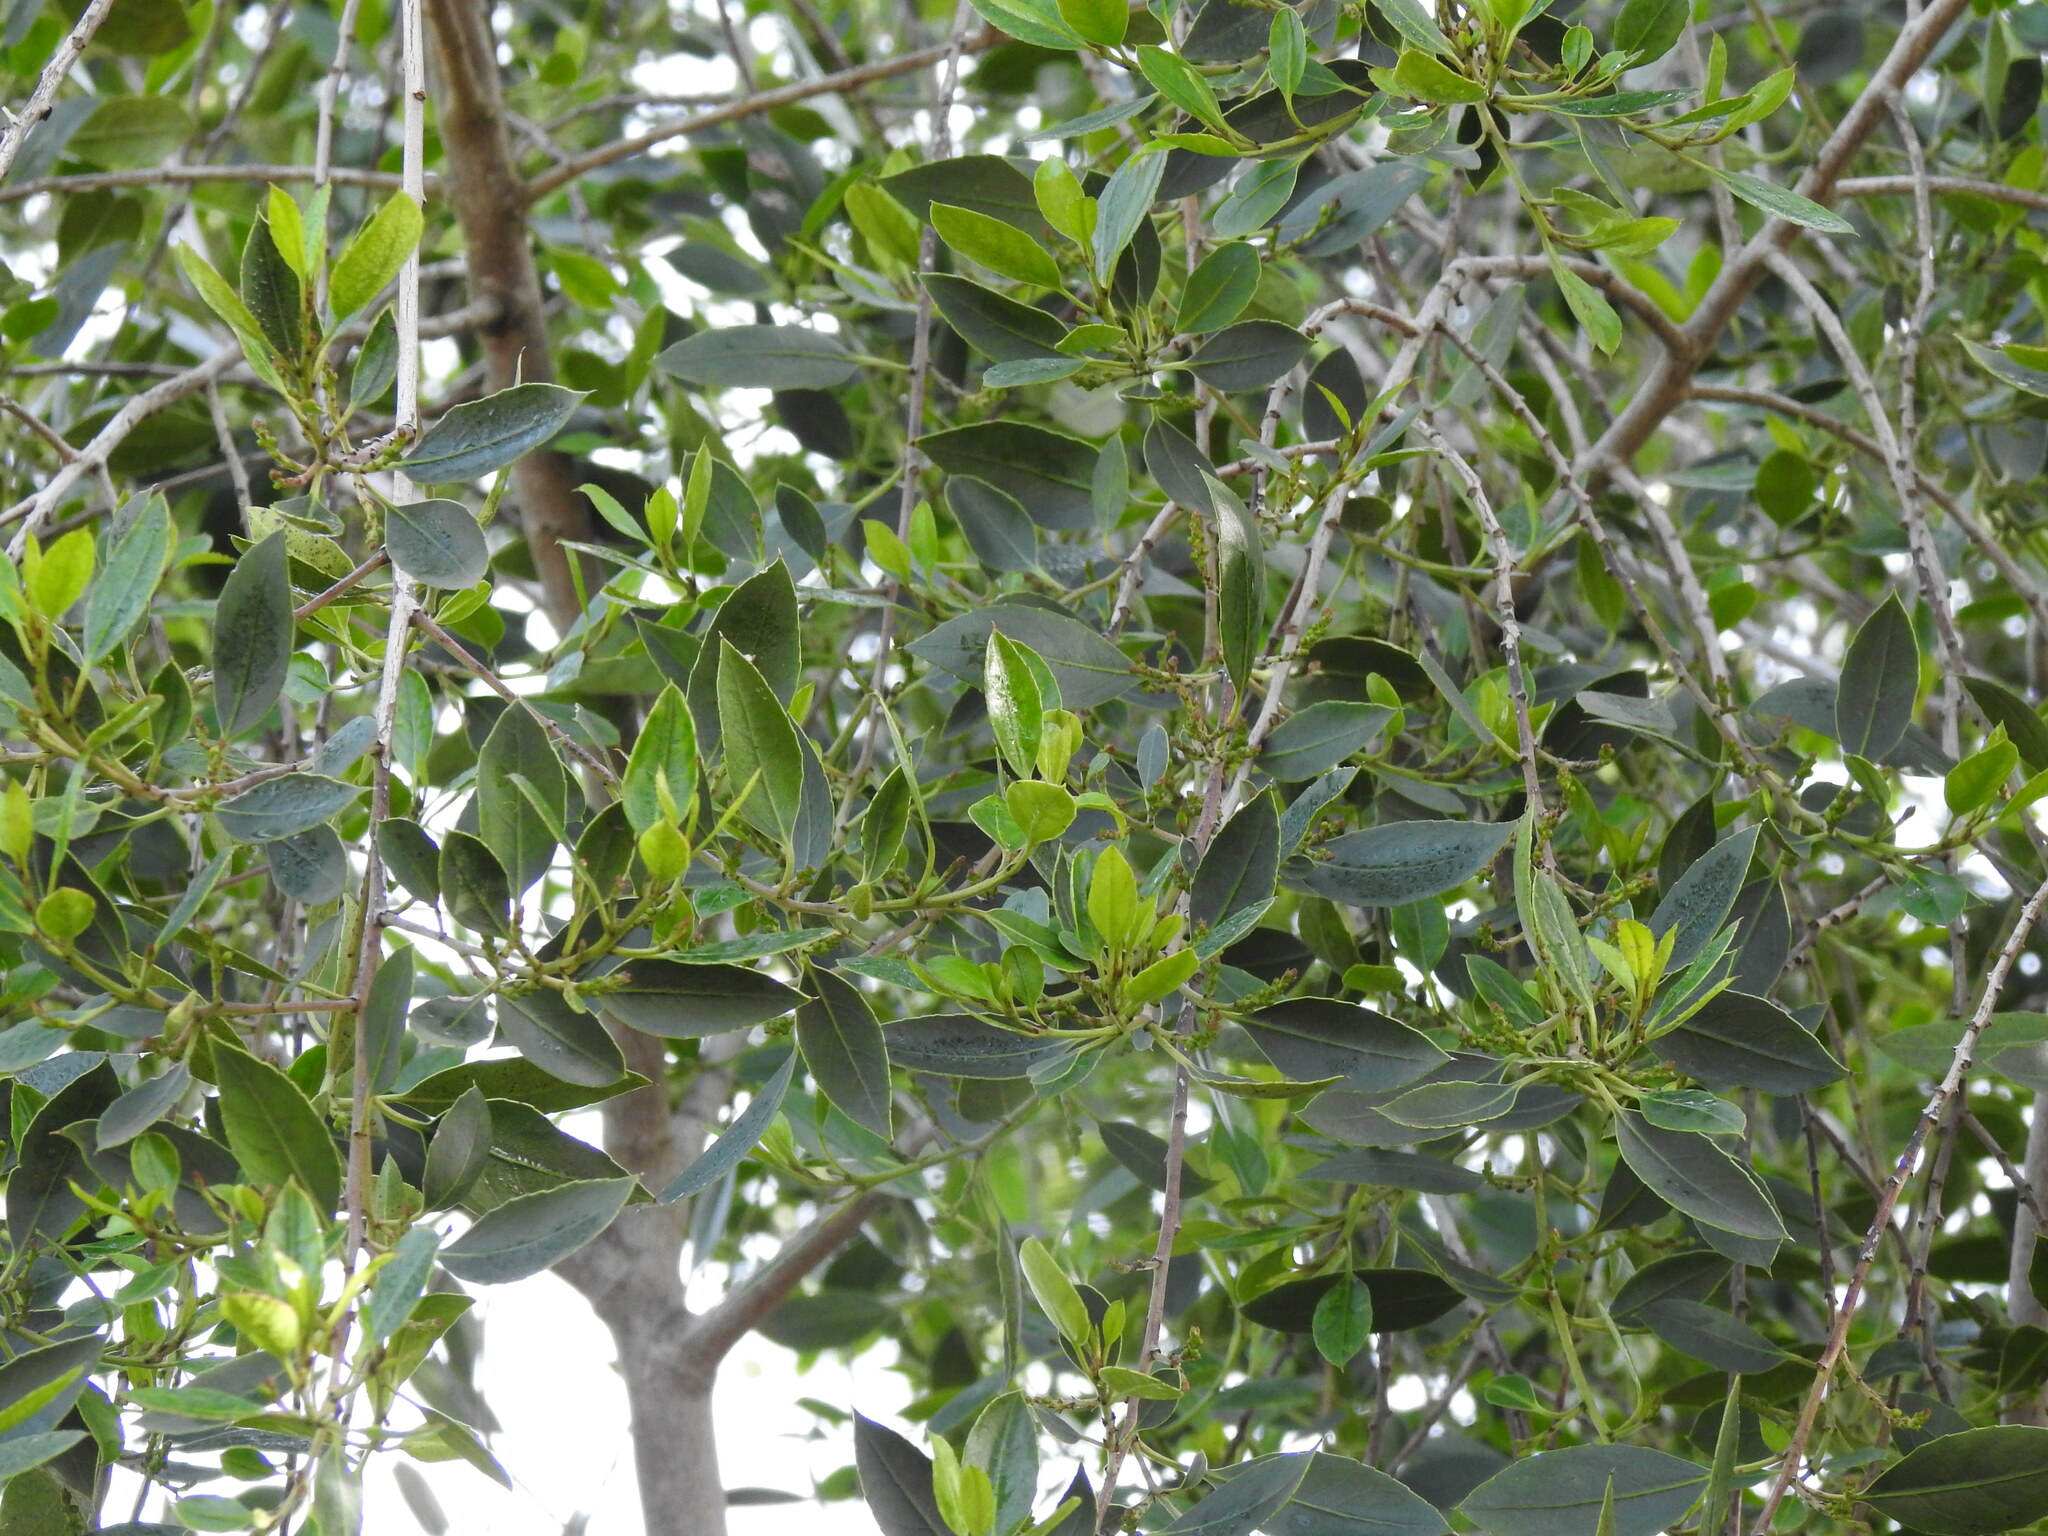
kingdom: Plantae
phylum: Tracheophyta
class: Magnoliopsida
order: Rosales
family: Rhamnaceae
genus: Rhamnus
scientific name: Rhamnus alaternus
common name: Mediterranean buckthorn
